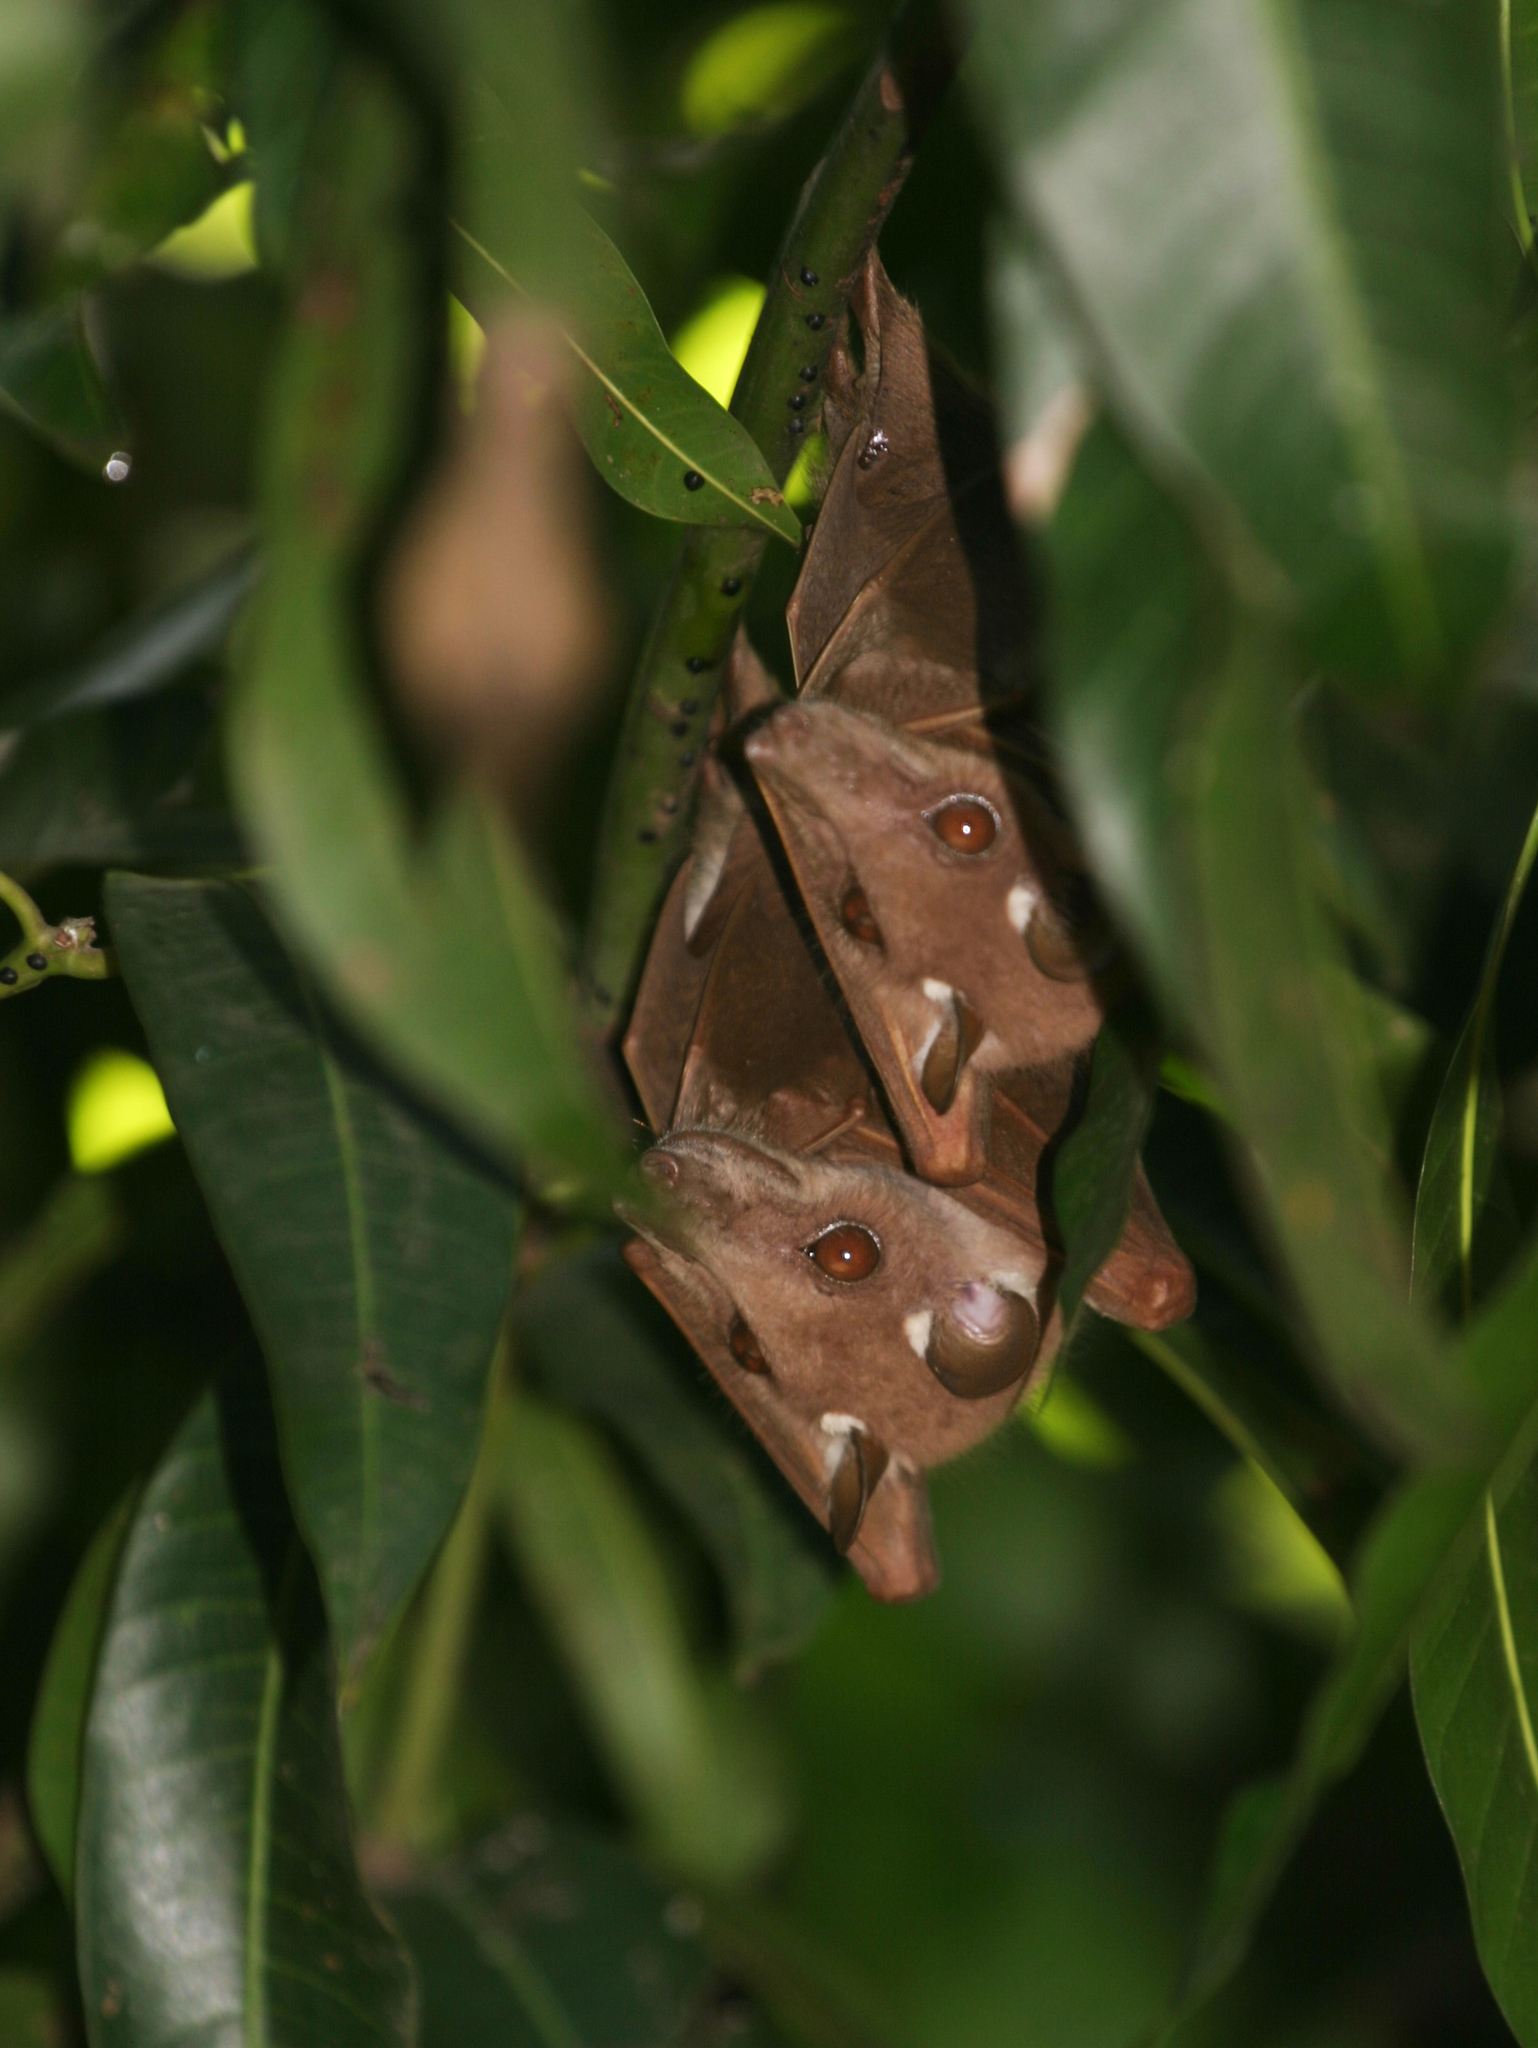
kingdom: Animalia
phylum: Chordata
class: Mammalia
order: Chiroptera
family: Pteropodidae
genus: Epomophorus
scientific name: Epomophorus
